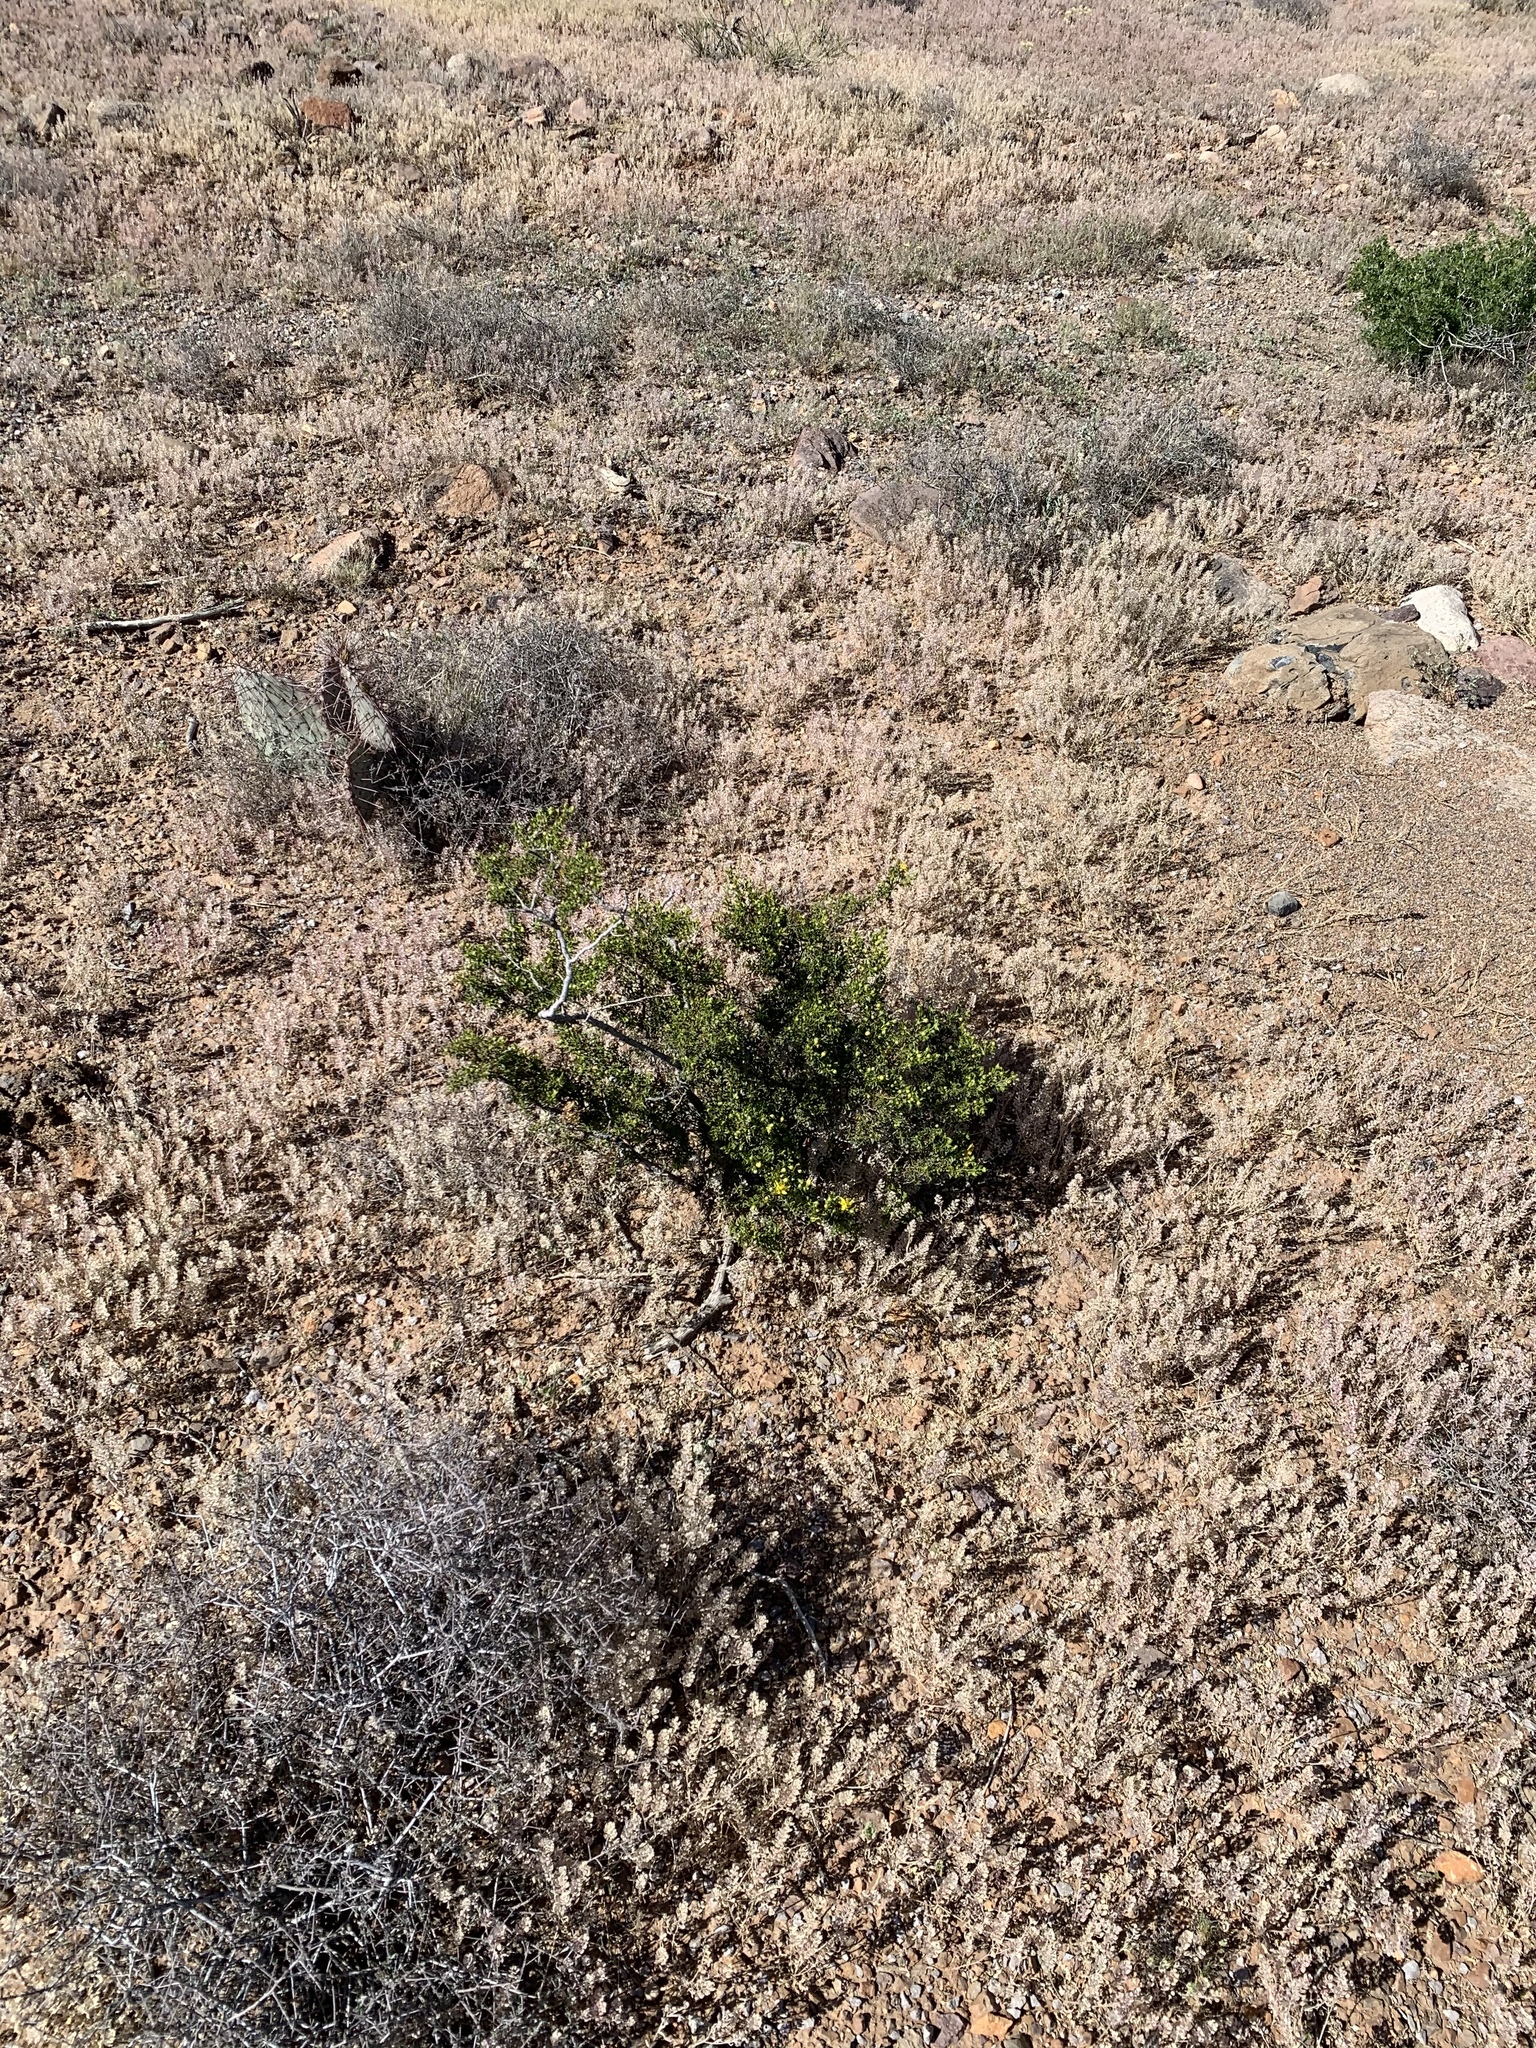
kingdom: Plantae
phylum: Tracheophyta
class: Magnoliopsida
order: Zygophyllales
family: Zygophyllaceae
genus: Larrea
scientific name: Larrea tridentata
